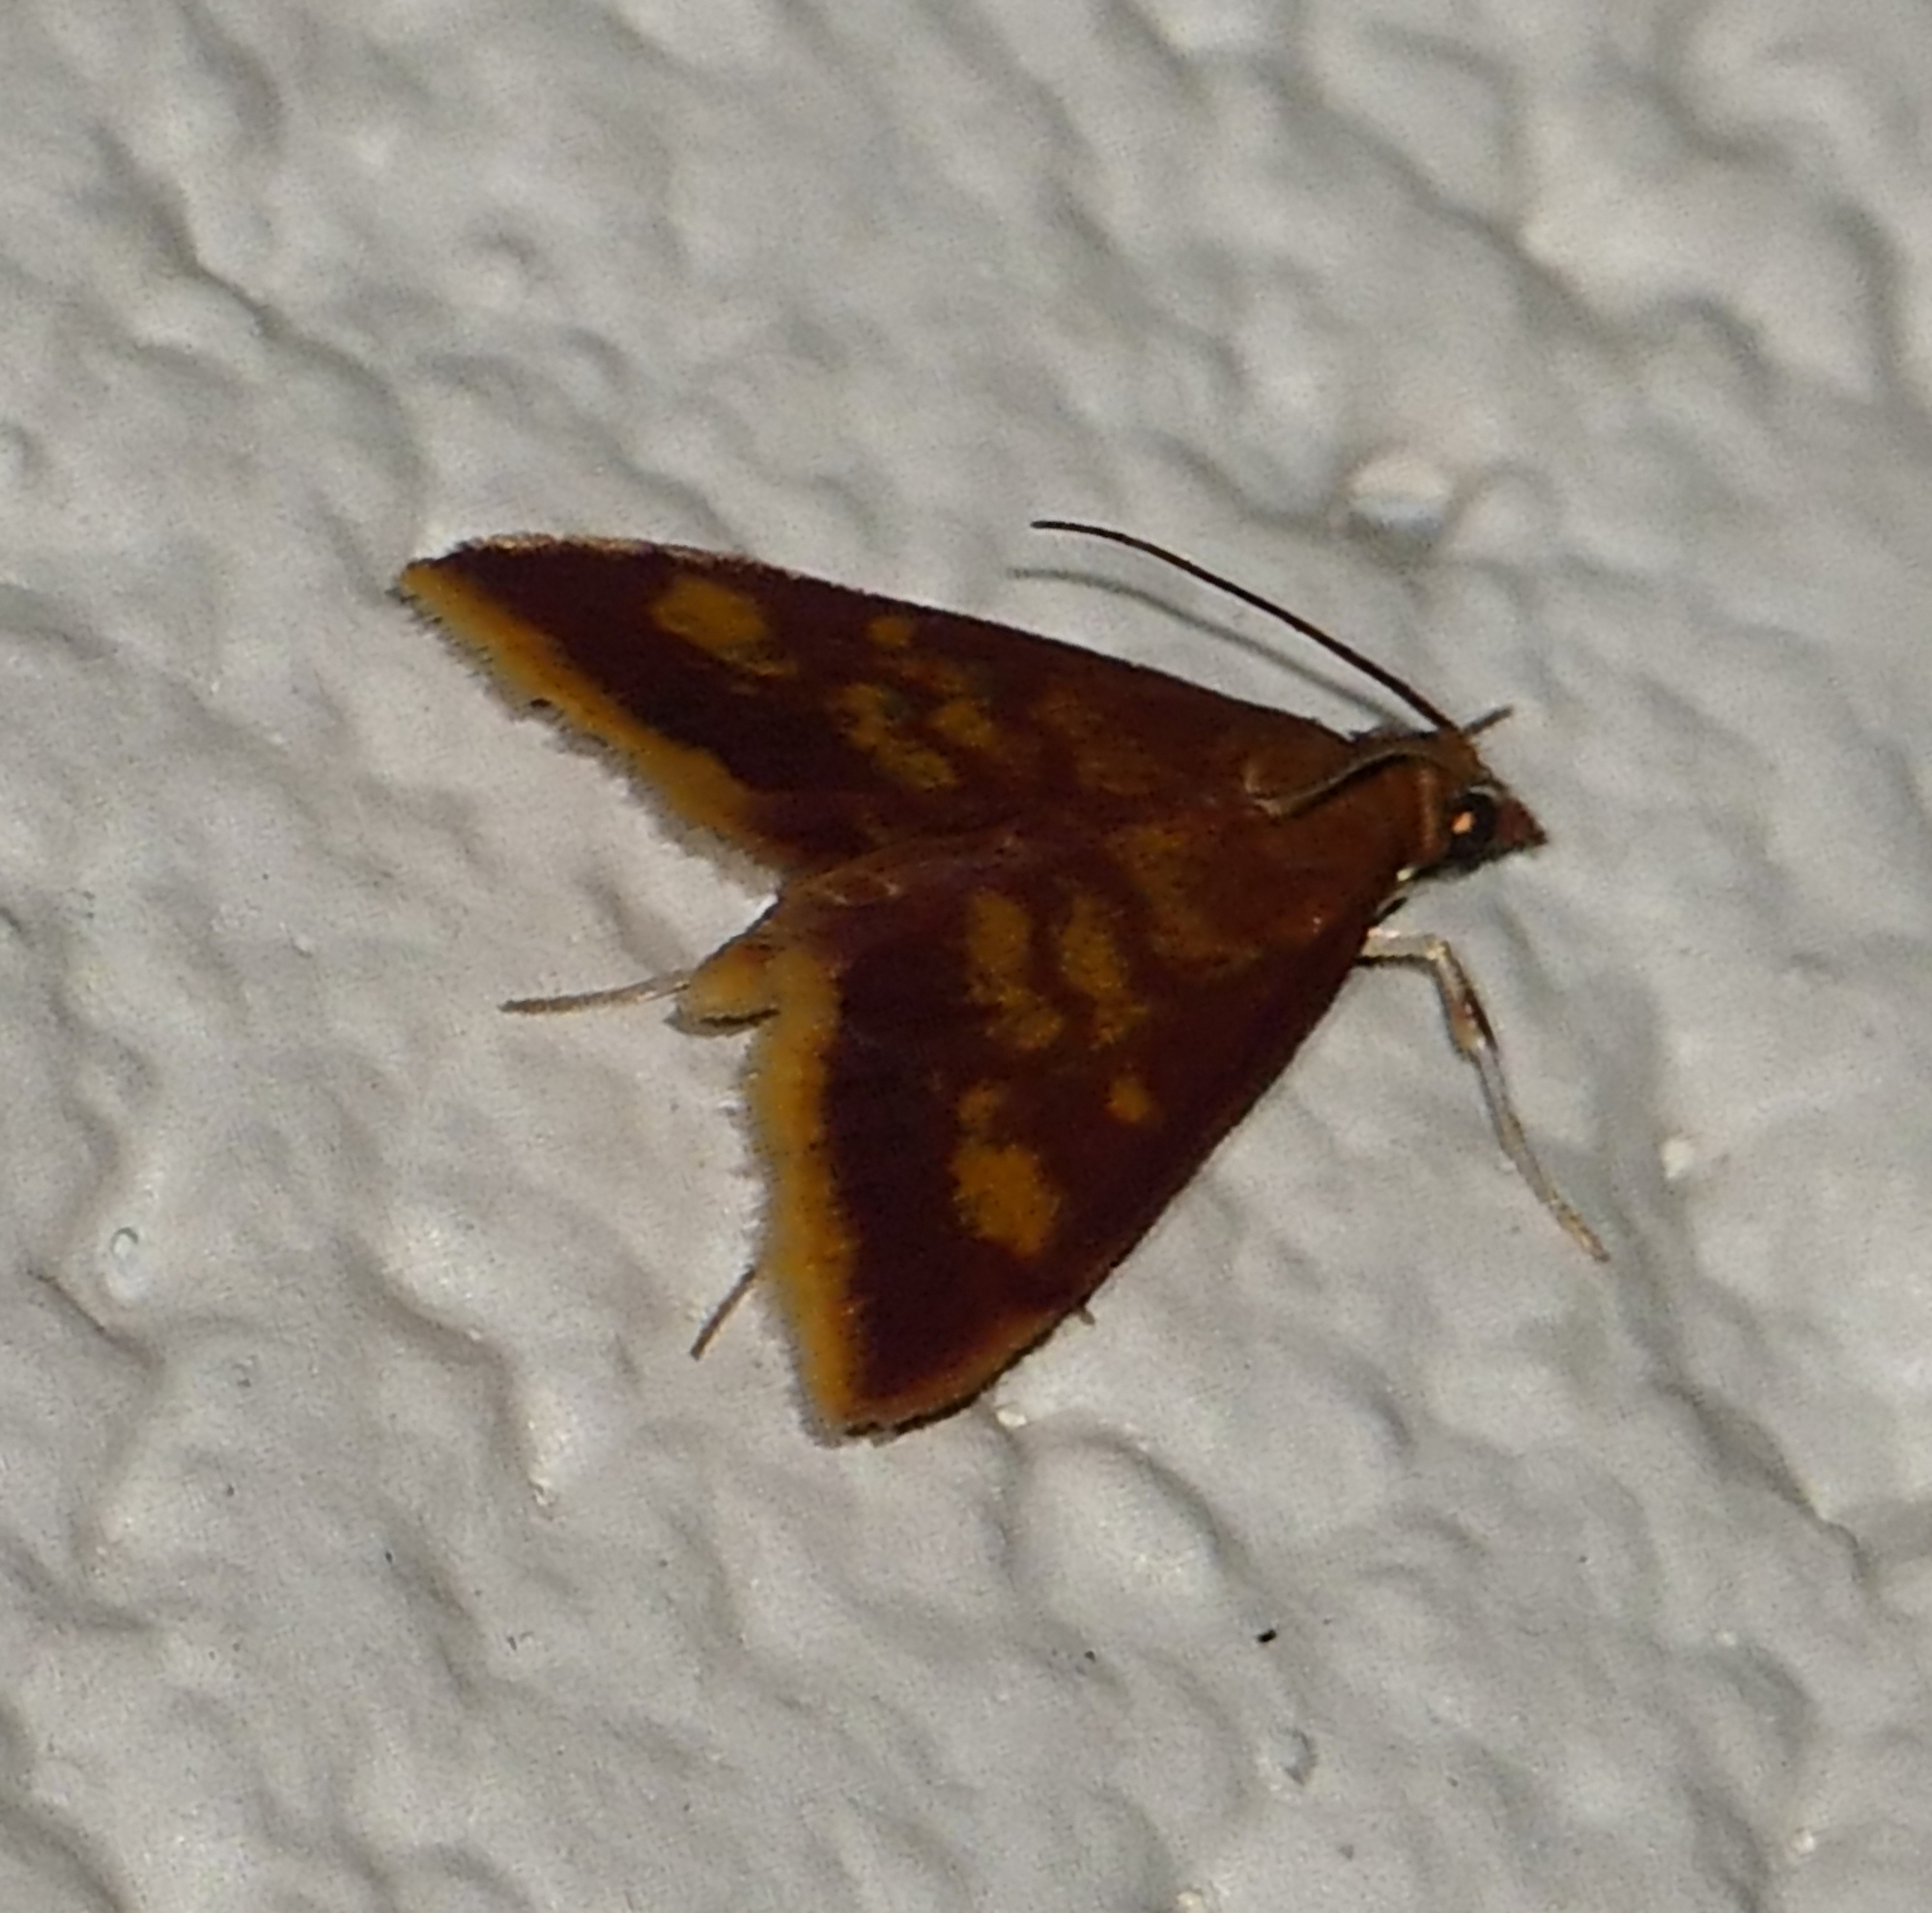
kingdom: Animalia
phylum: Arthropoda
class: Insecta
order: Lepidoptera
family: Crambidae
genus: Pyrausta
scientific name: Pyrausta acrionalis
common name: Mint-loving pyrausta moth
